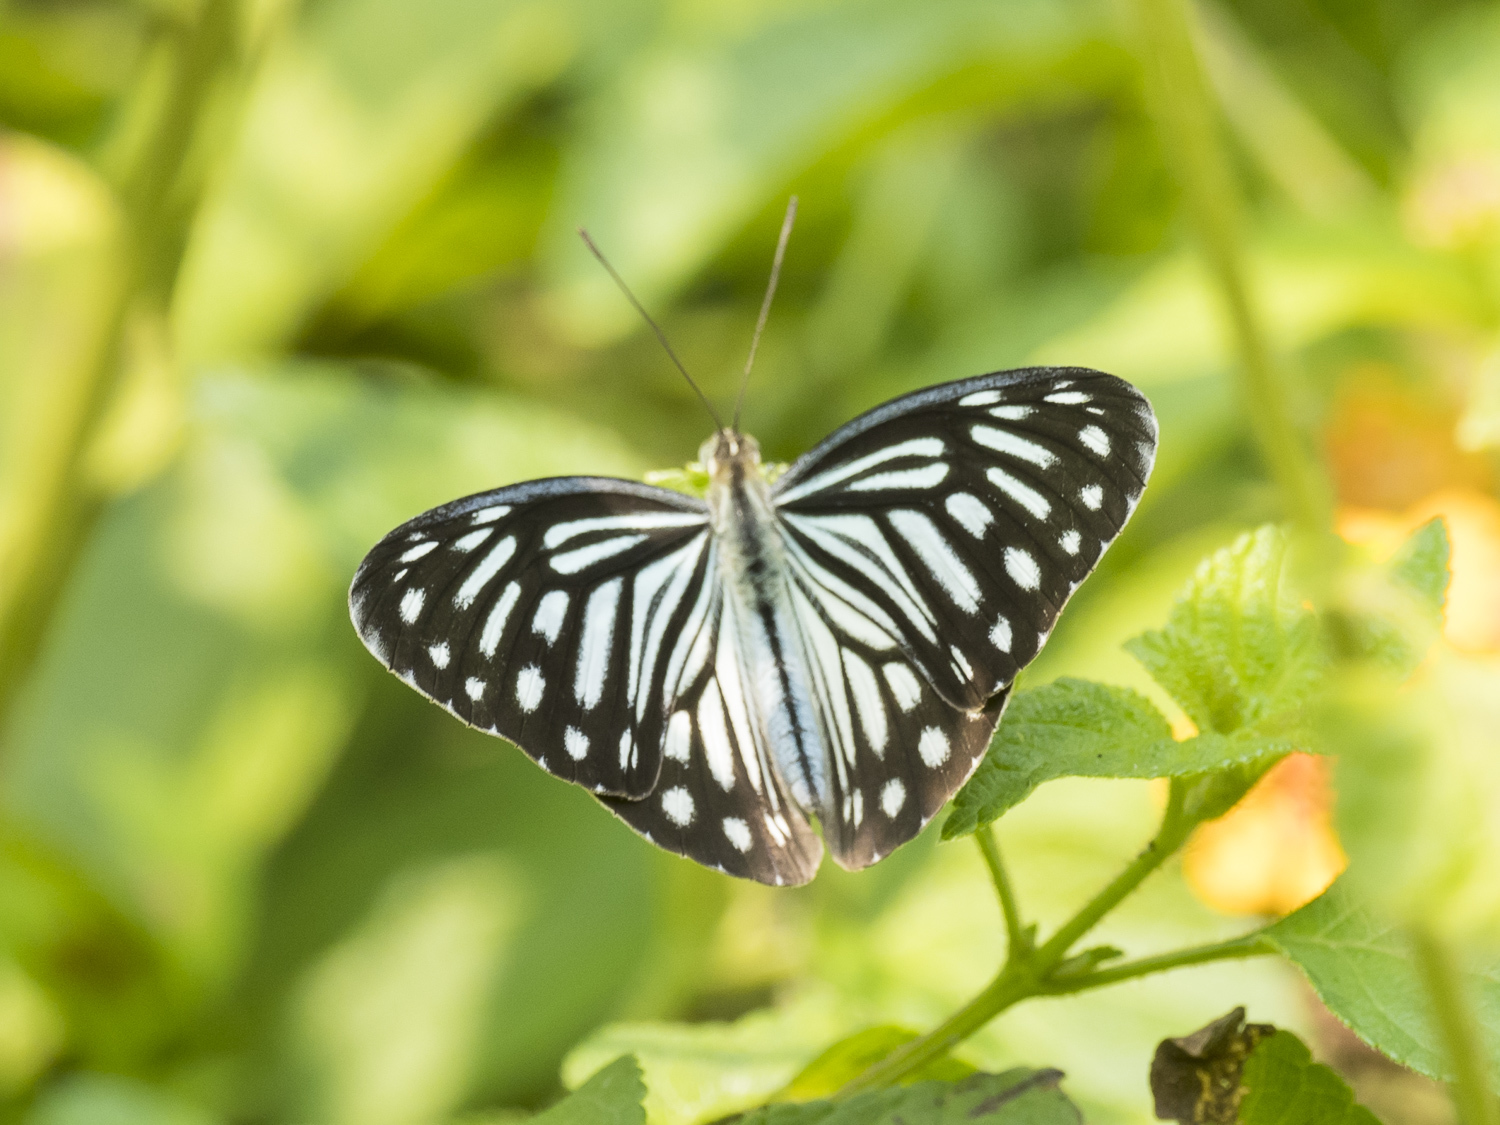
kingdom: Animalia
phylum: Arthropoda
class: Insecta
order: Lepidoptera
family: Pieridae
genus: Pareronia
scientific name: Pareronia hippia
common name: Indian wanderer
